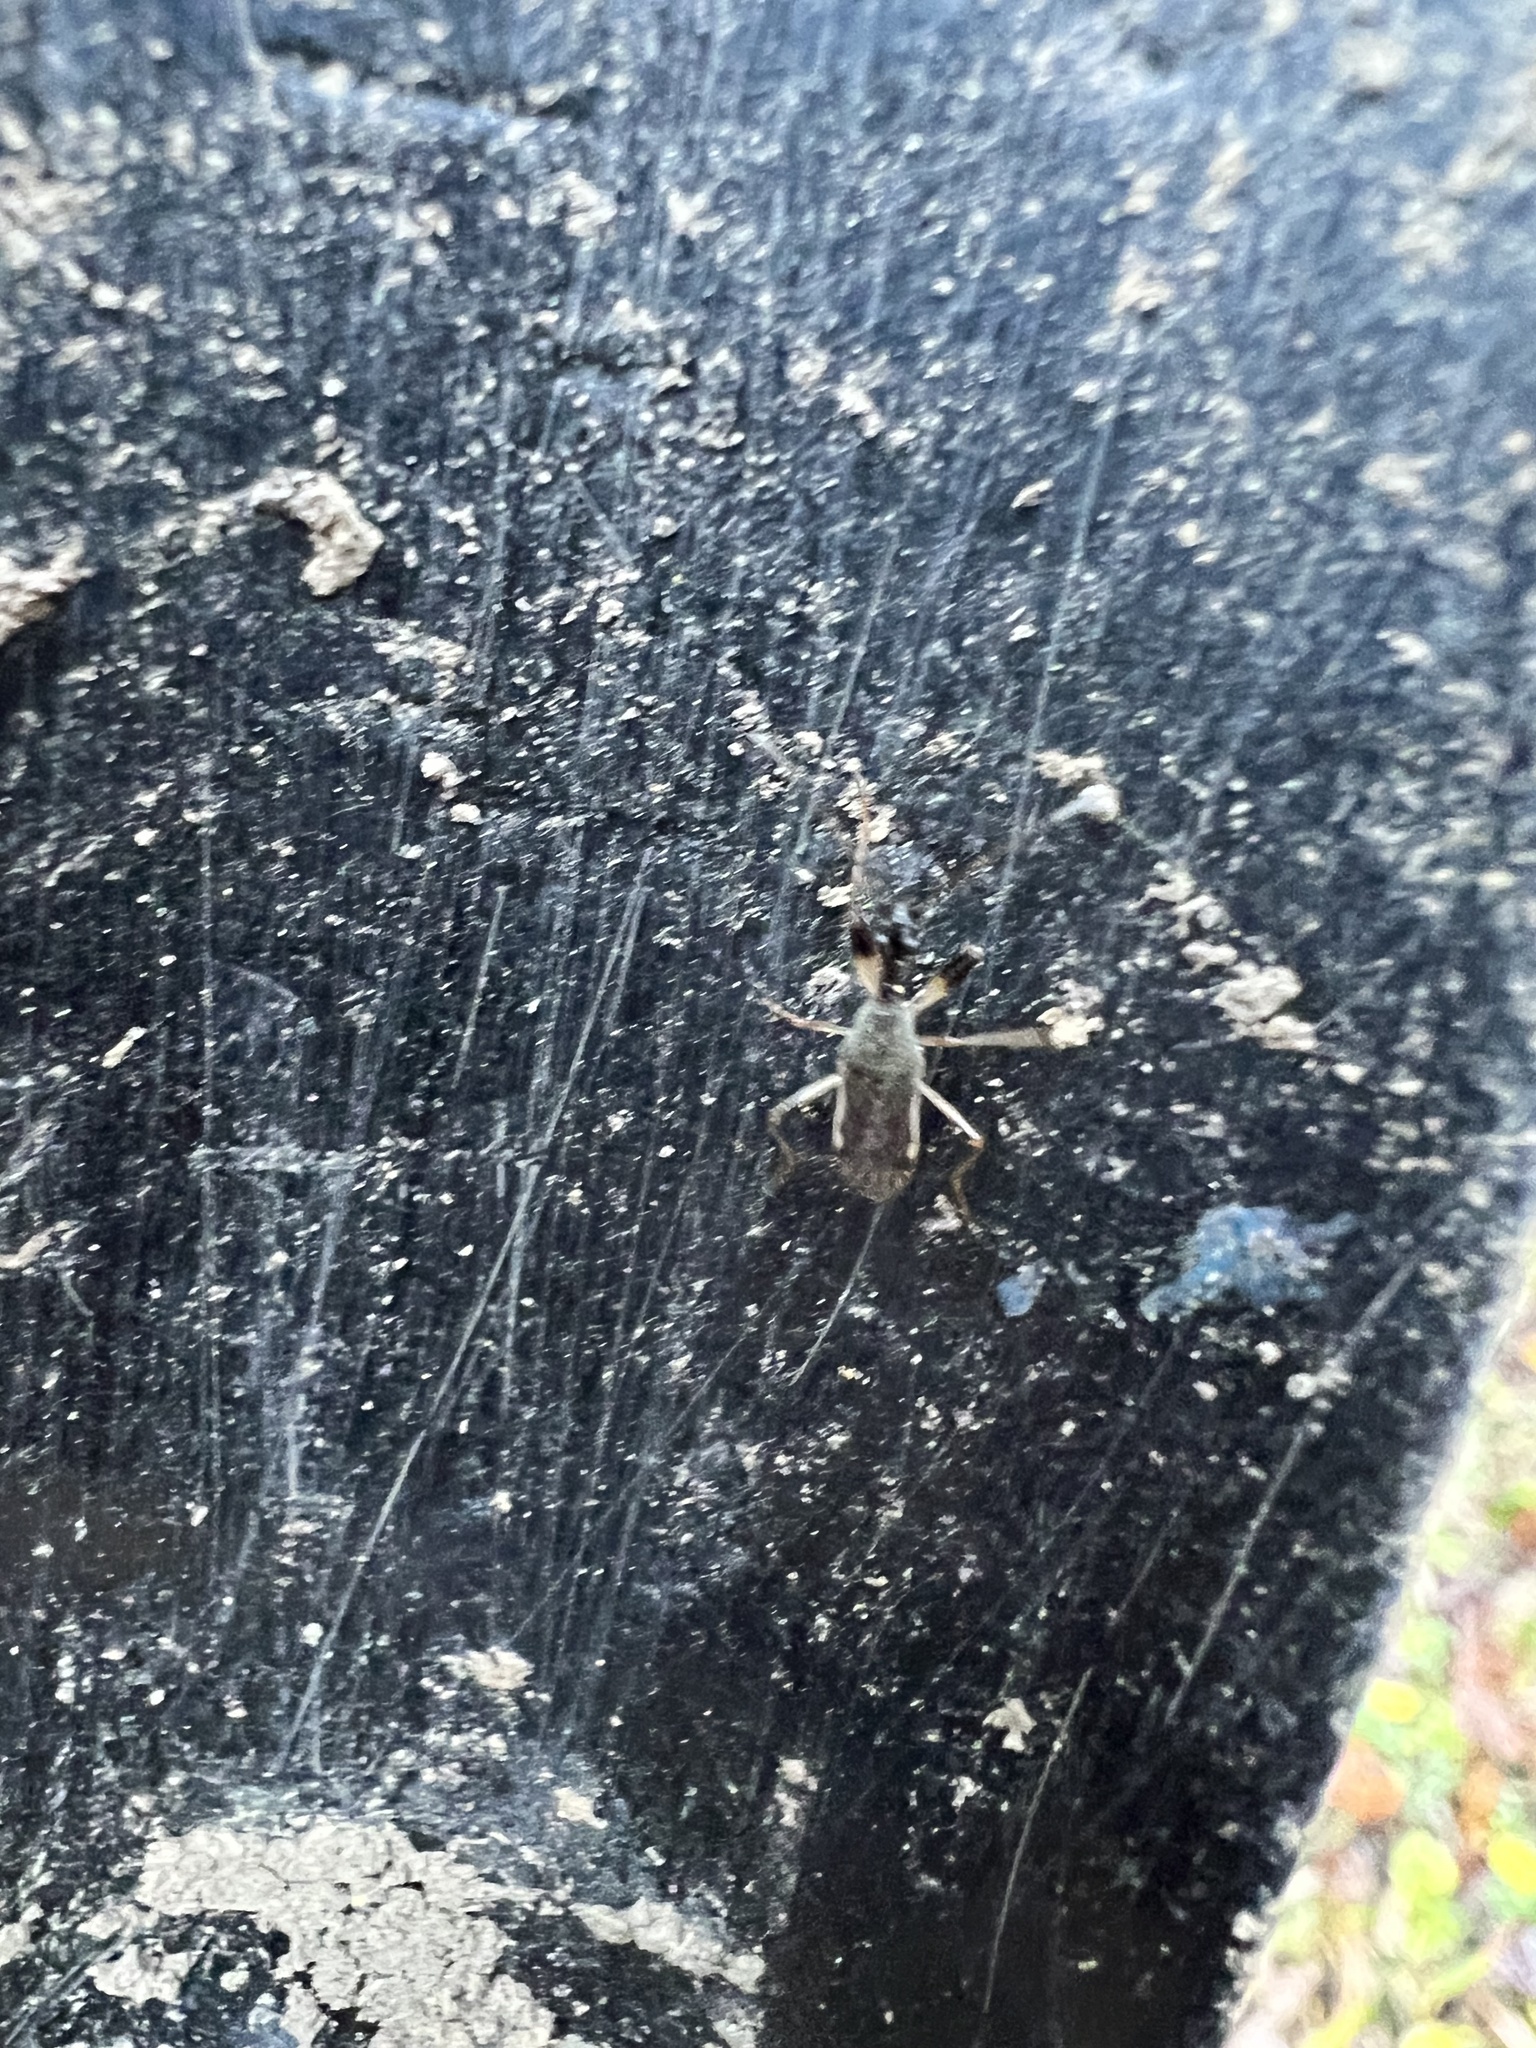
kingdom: Animalia
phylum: Arthropoda
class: Insecta
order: Hemiptera
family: Rhyparochromidae
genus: Myodocha
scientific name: Myodocha serripes
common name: Long-necked seed bug
